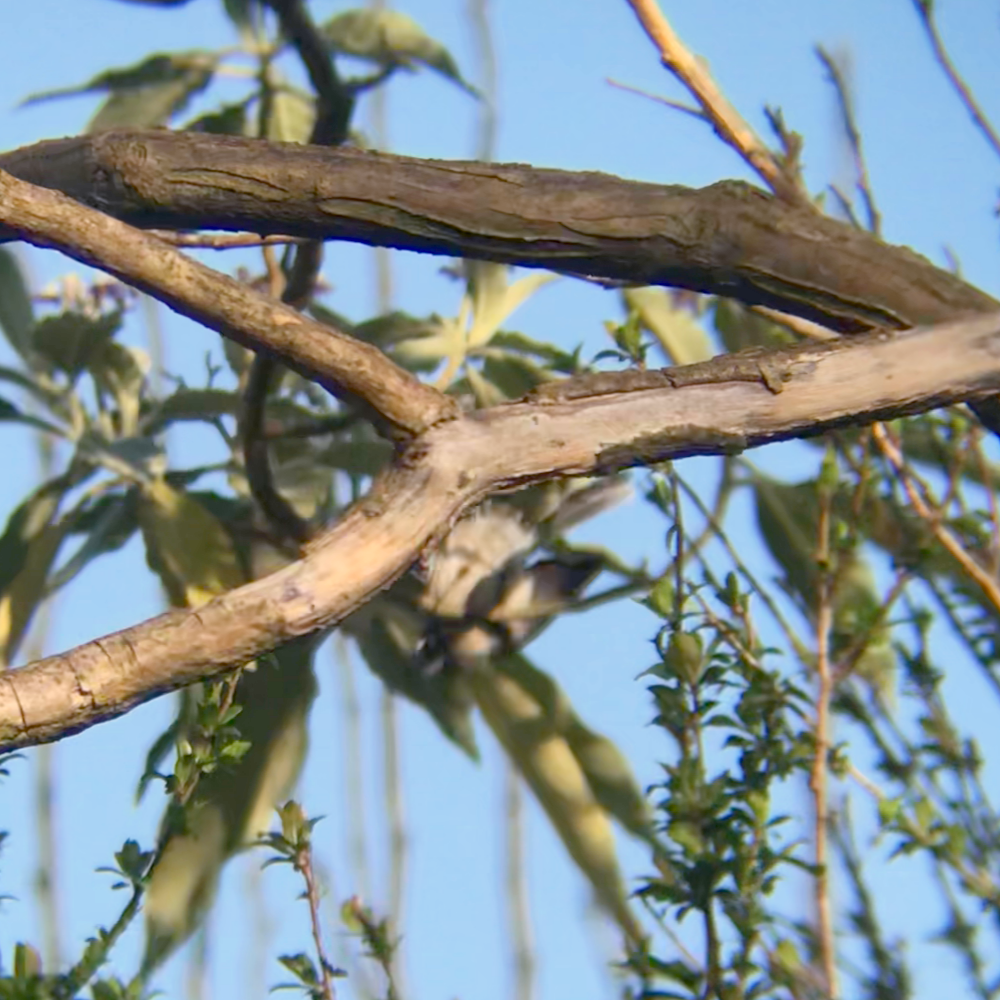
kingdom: Animalia
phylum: Chordata
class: Aves
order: Passeriformes
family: Rhipiduridae
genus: Rhipidura
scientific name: Rhipidura albiscapa
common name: Grey fantail
